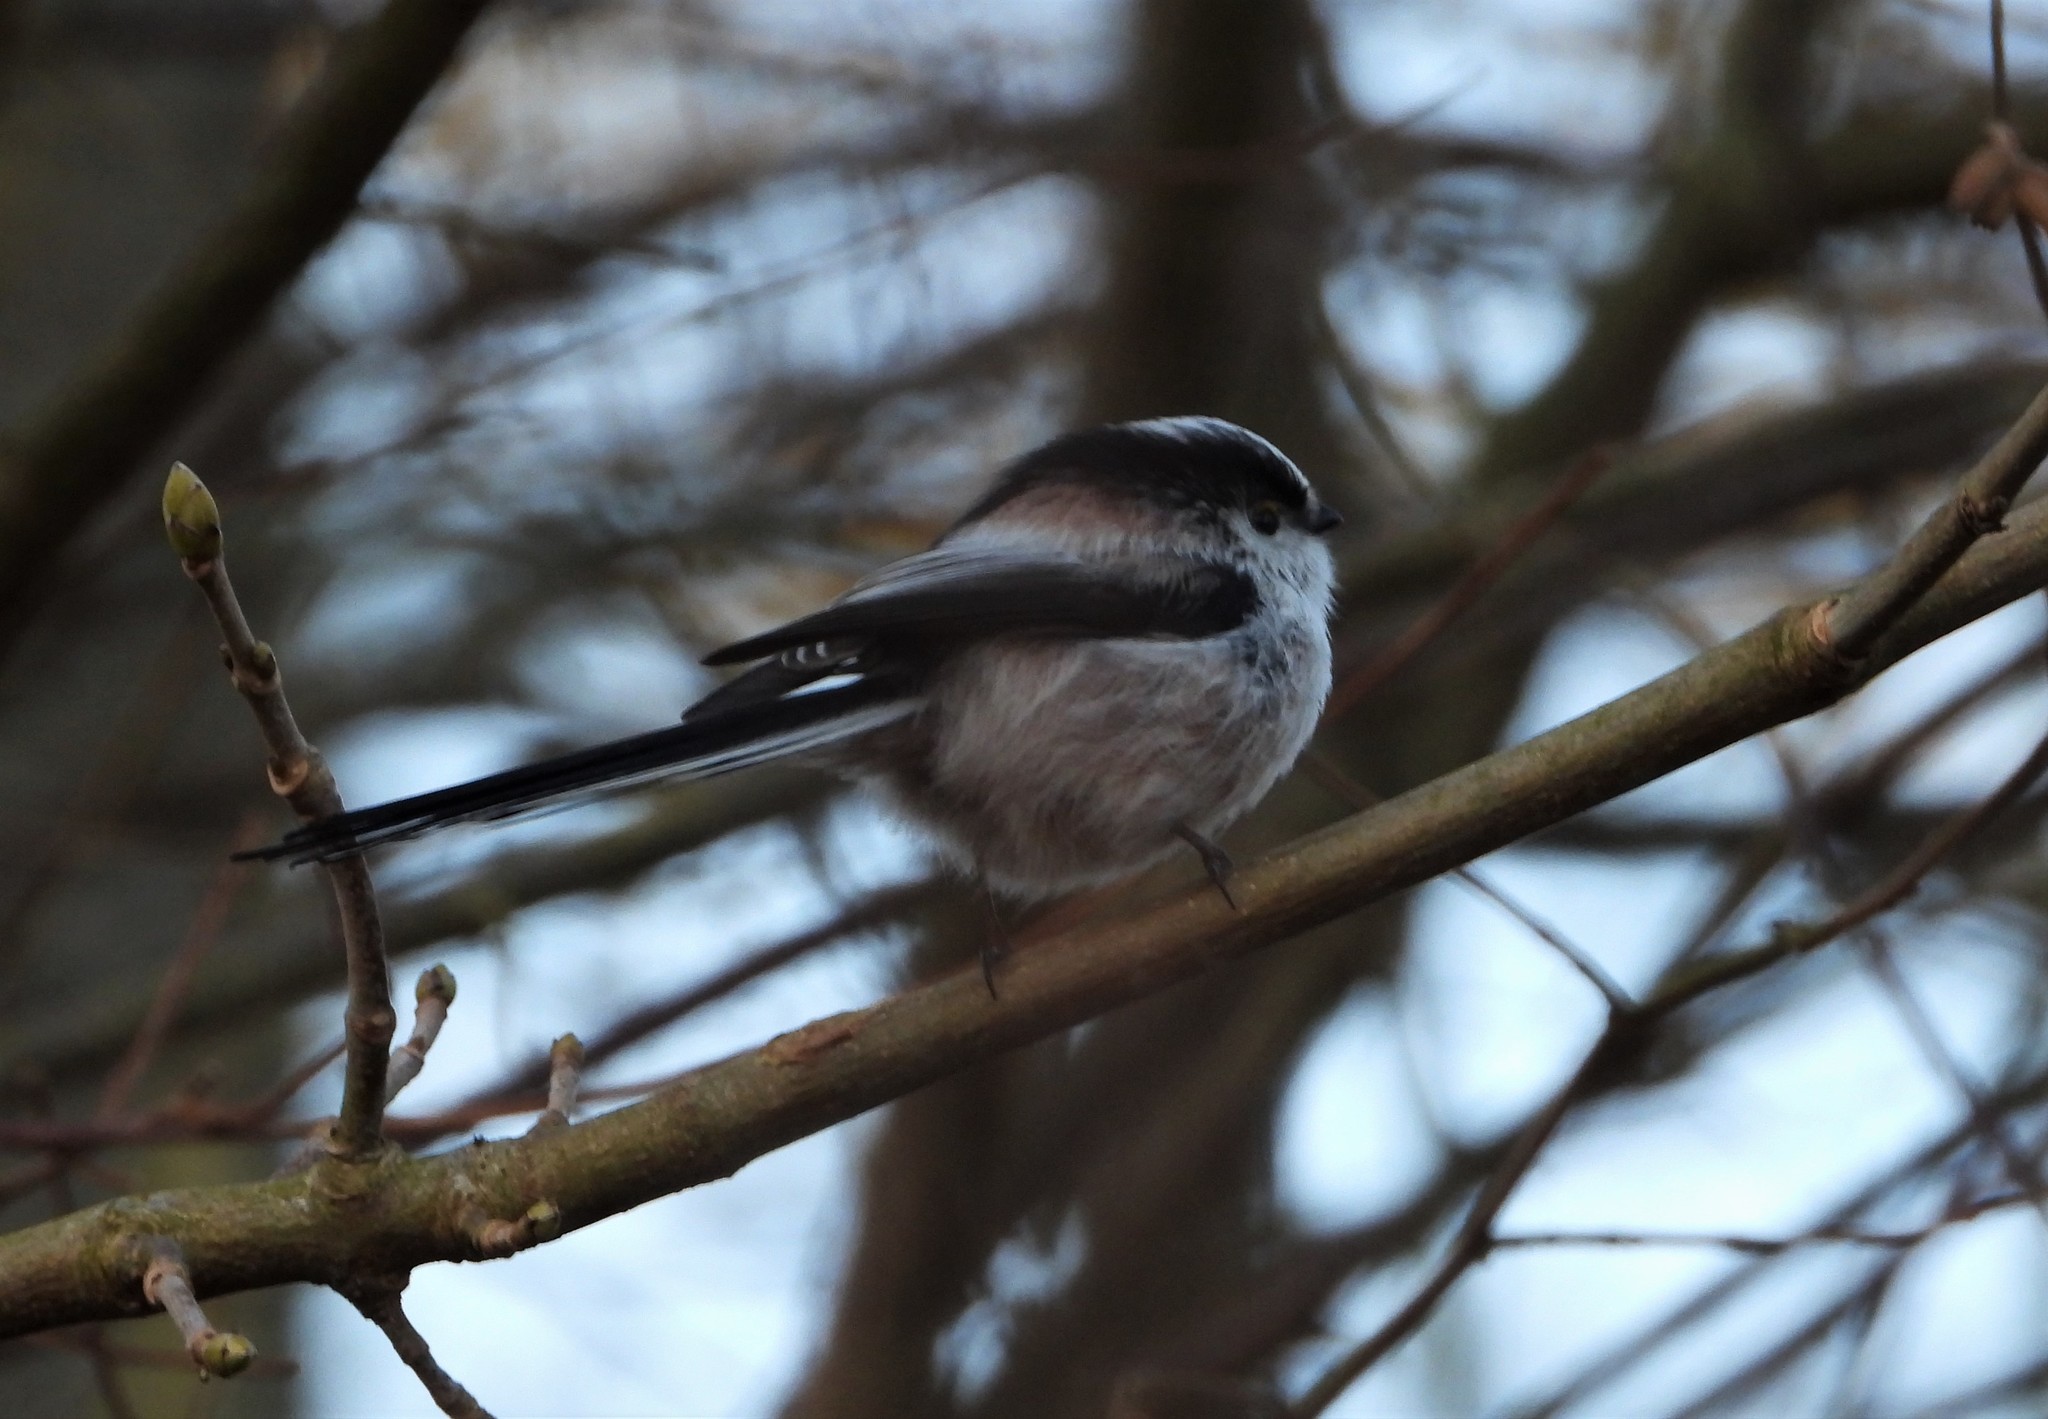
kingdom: Animalia
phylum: Chordata
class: Aves
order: Passeriformes
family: Aegithalidae
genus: Aegithalos
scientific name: Aegithalos caudatus
